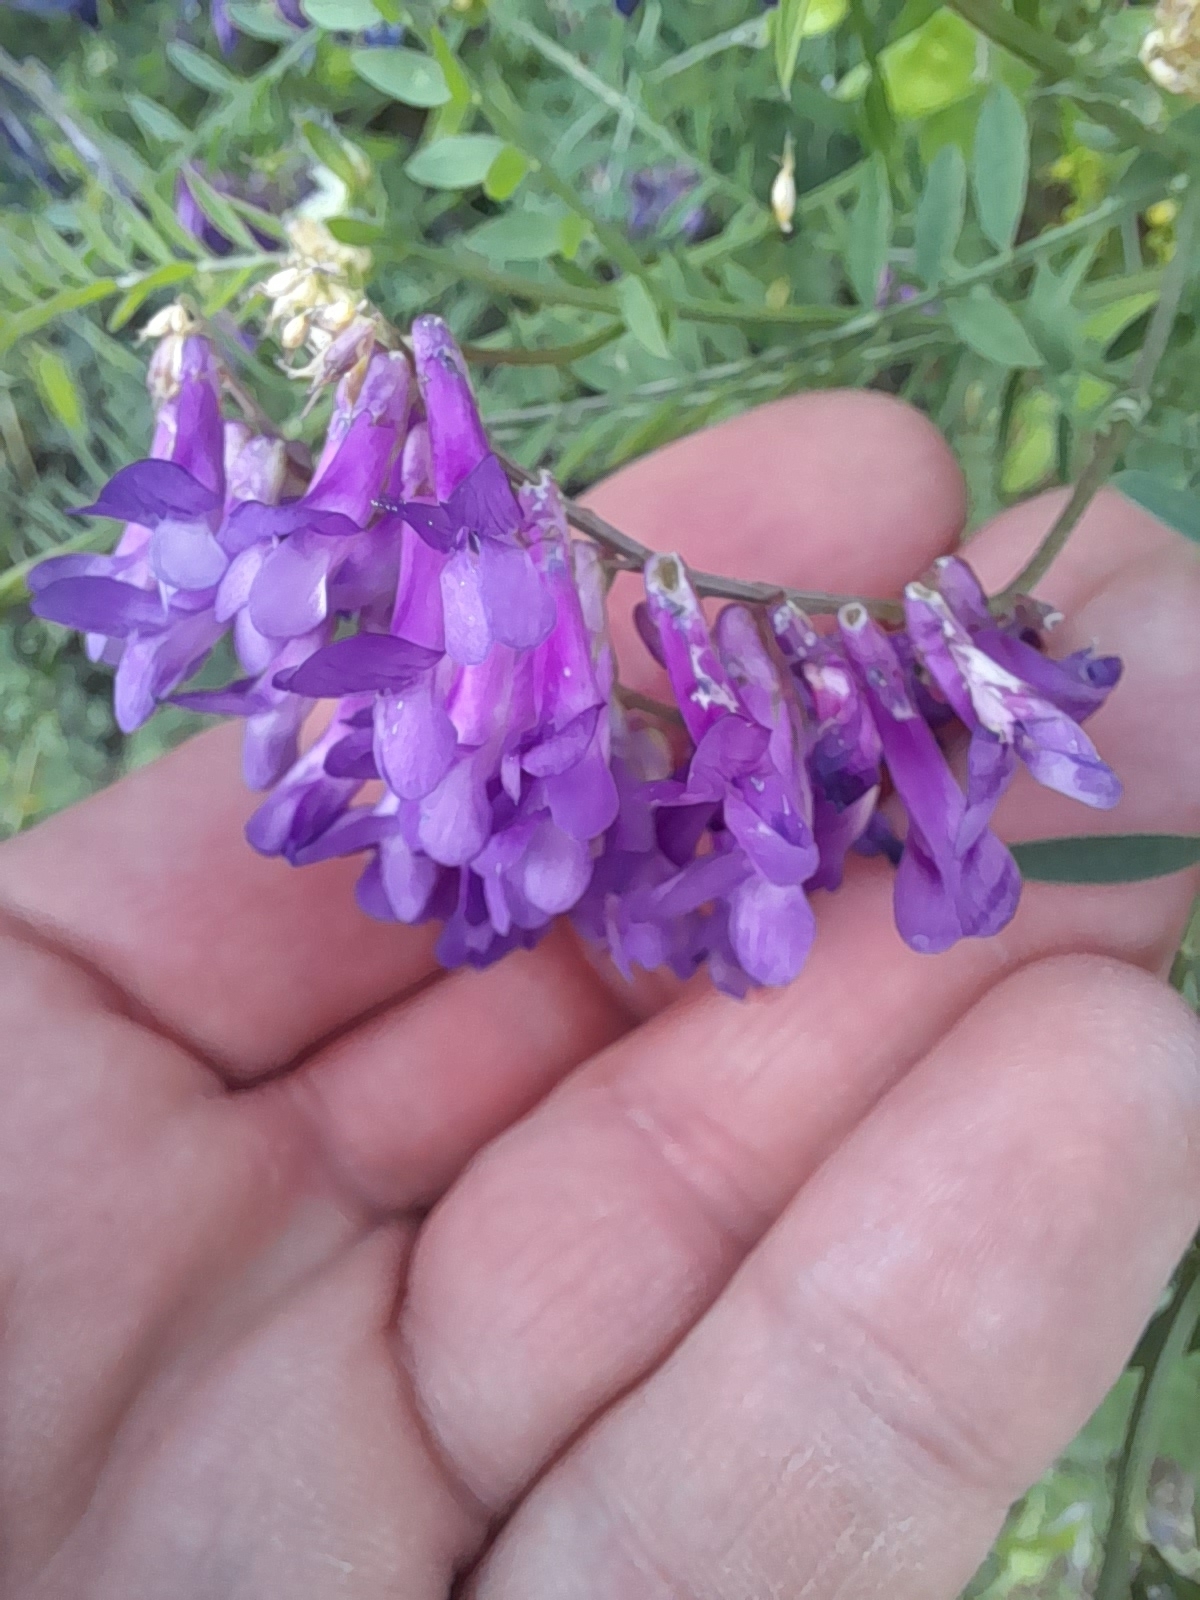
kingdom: Plantae
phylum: Tracheophyta
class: Magnoliopsida
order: Fabales
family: Fabaceae
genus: Vicia
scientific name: Vicia villosa
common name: Fodder vetch
